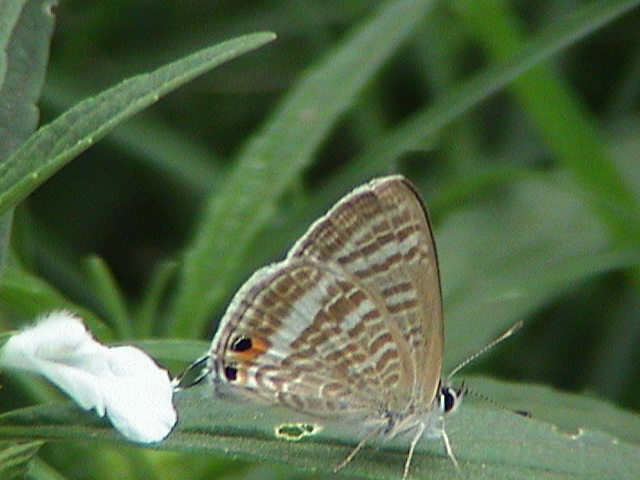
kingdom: Animalia
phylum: Arthropoda
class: Insecta
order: Lepidoptera
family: Lycaenidae
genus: Lampides
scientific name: Lampides boeticus
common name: Long-tailed blue
